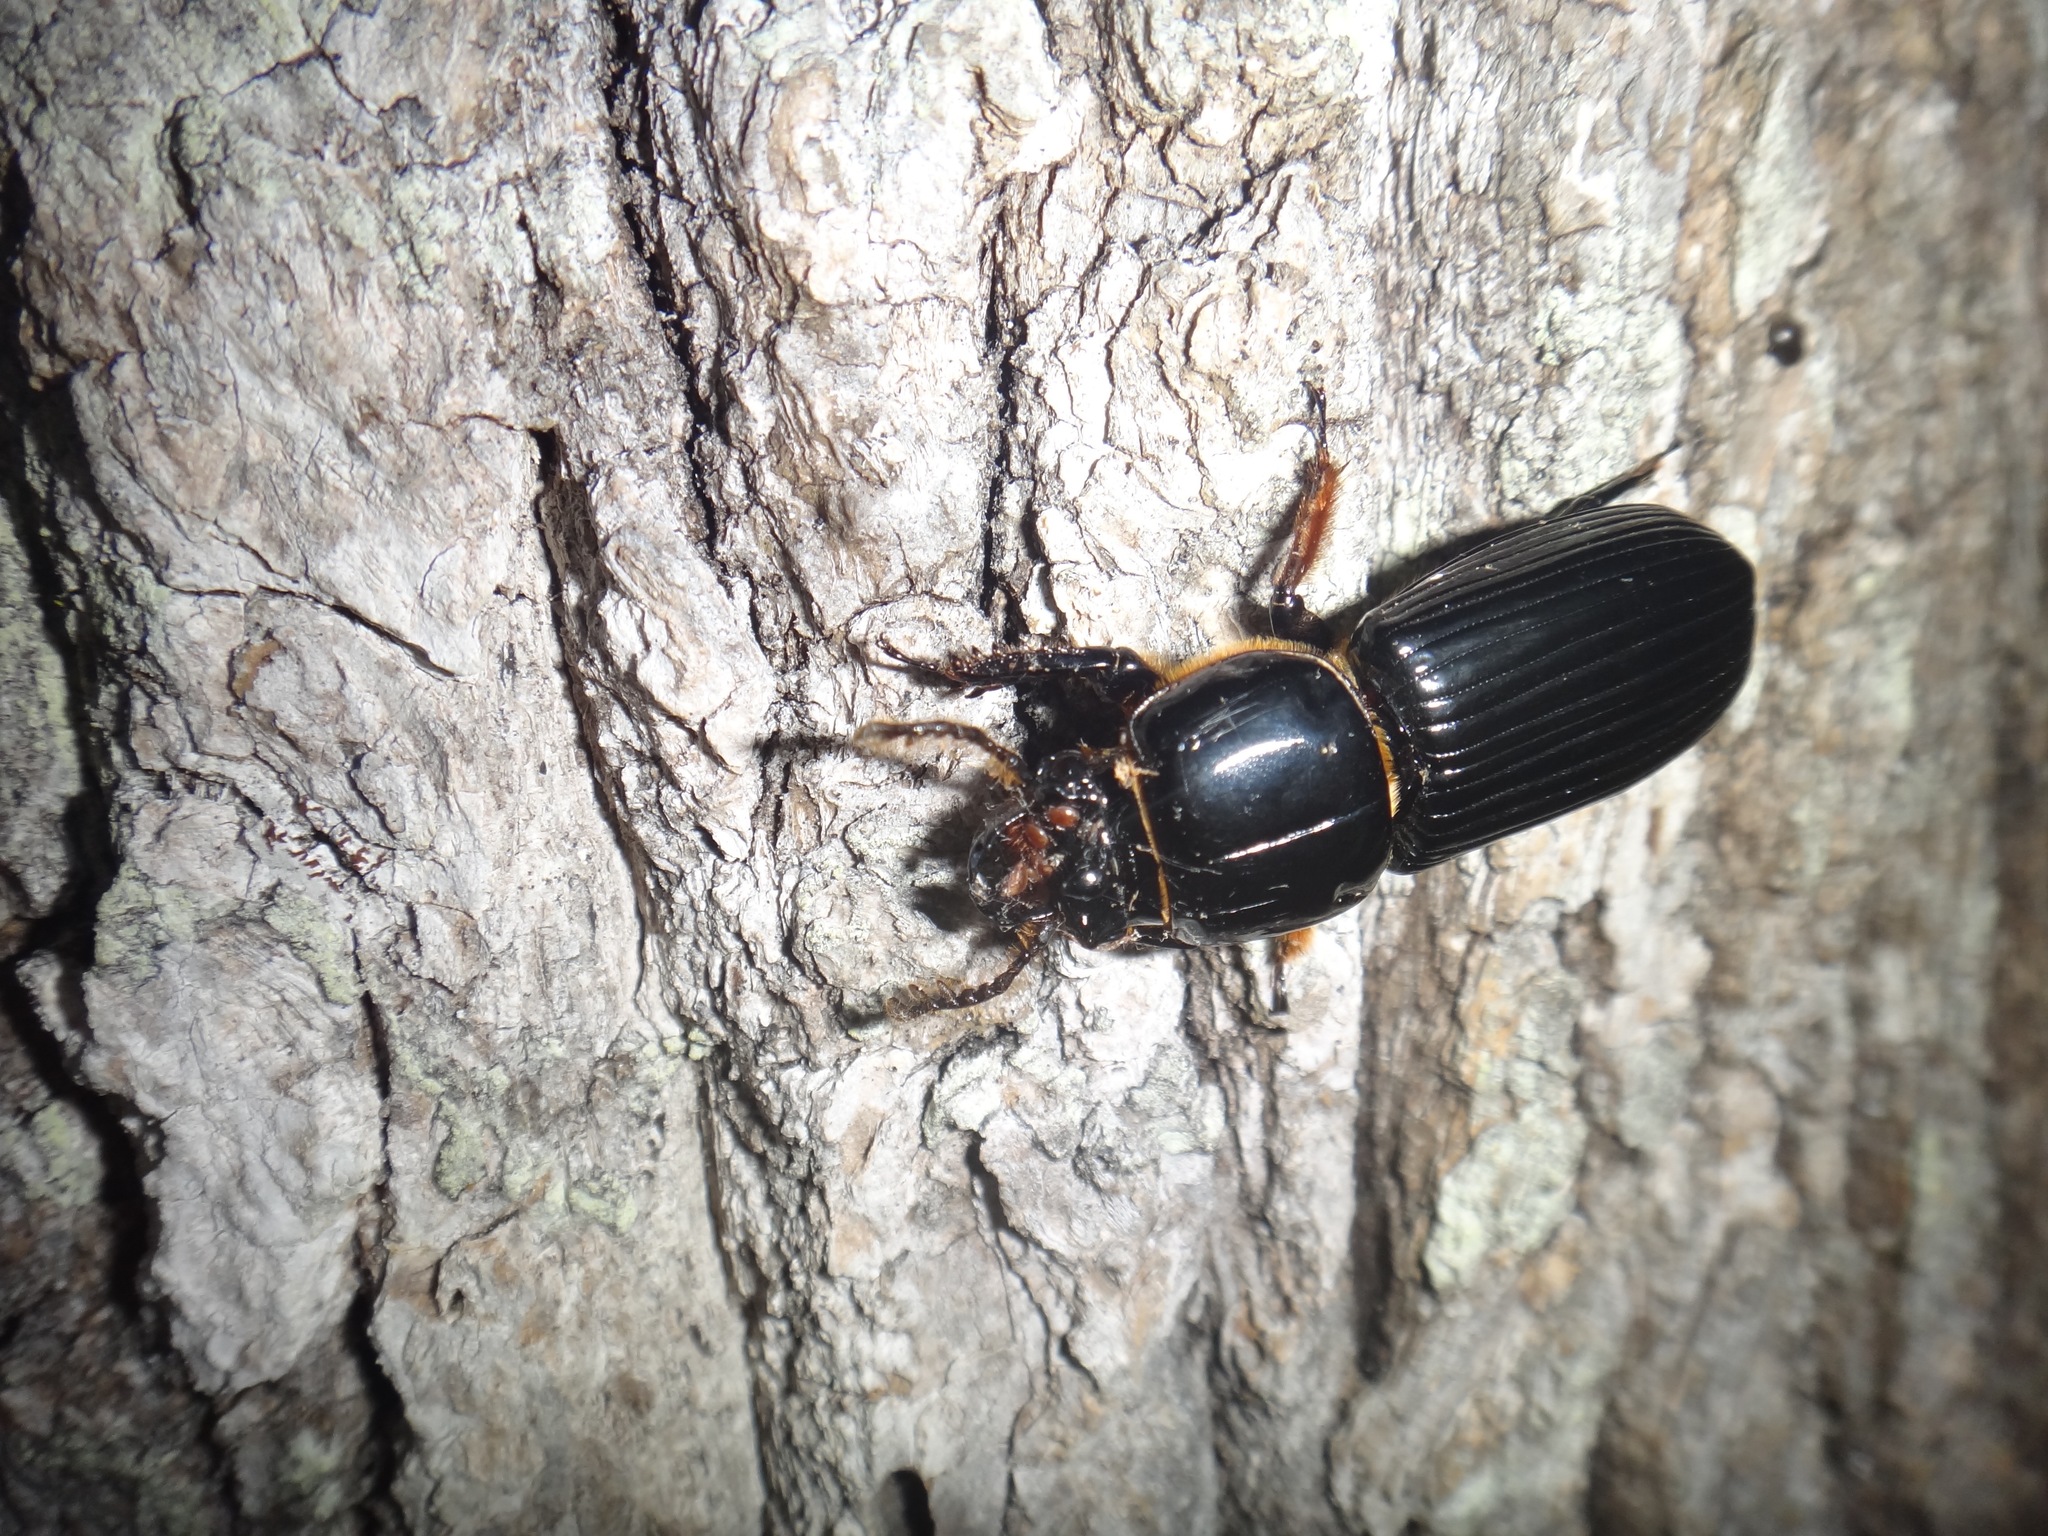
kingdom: Animalia
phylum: Arthropoda
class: Insecta
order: Coleoptera
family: Passalidae
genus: Odontotaenius
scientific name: Odontotaenius disjunctus
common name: Patent leather beetle
